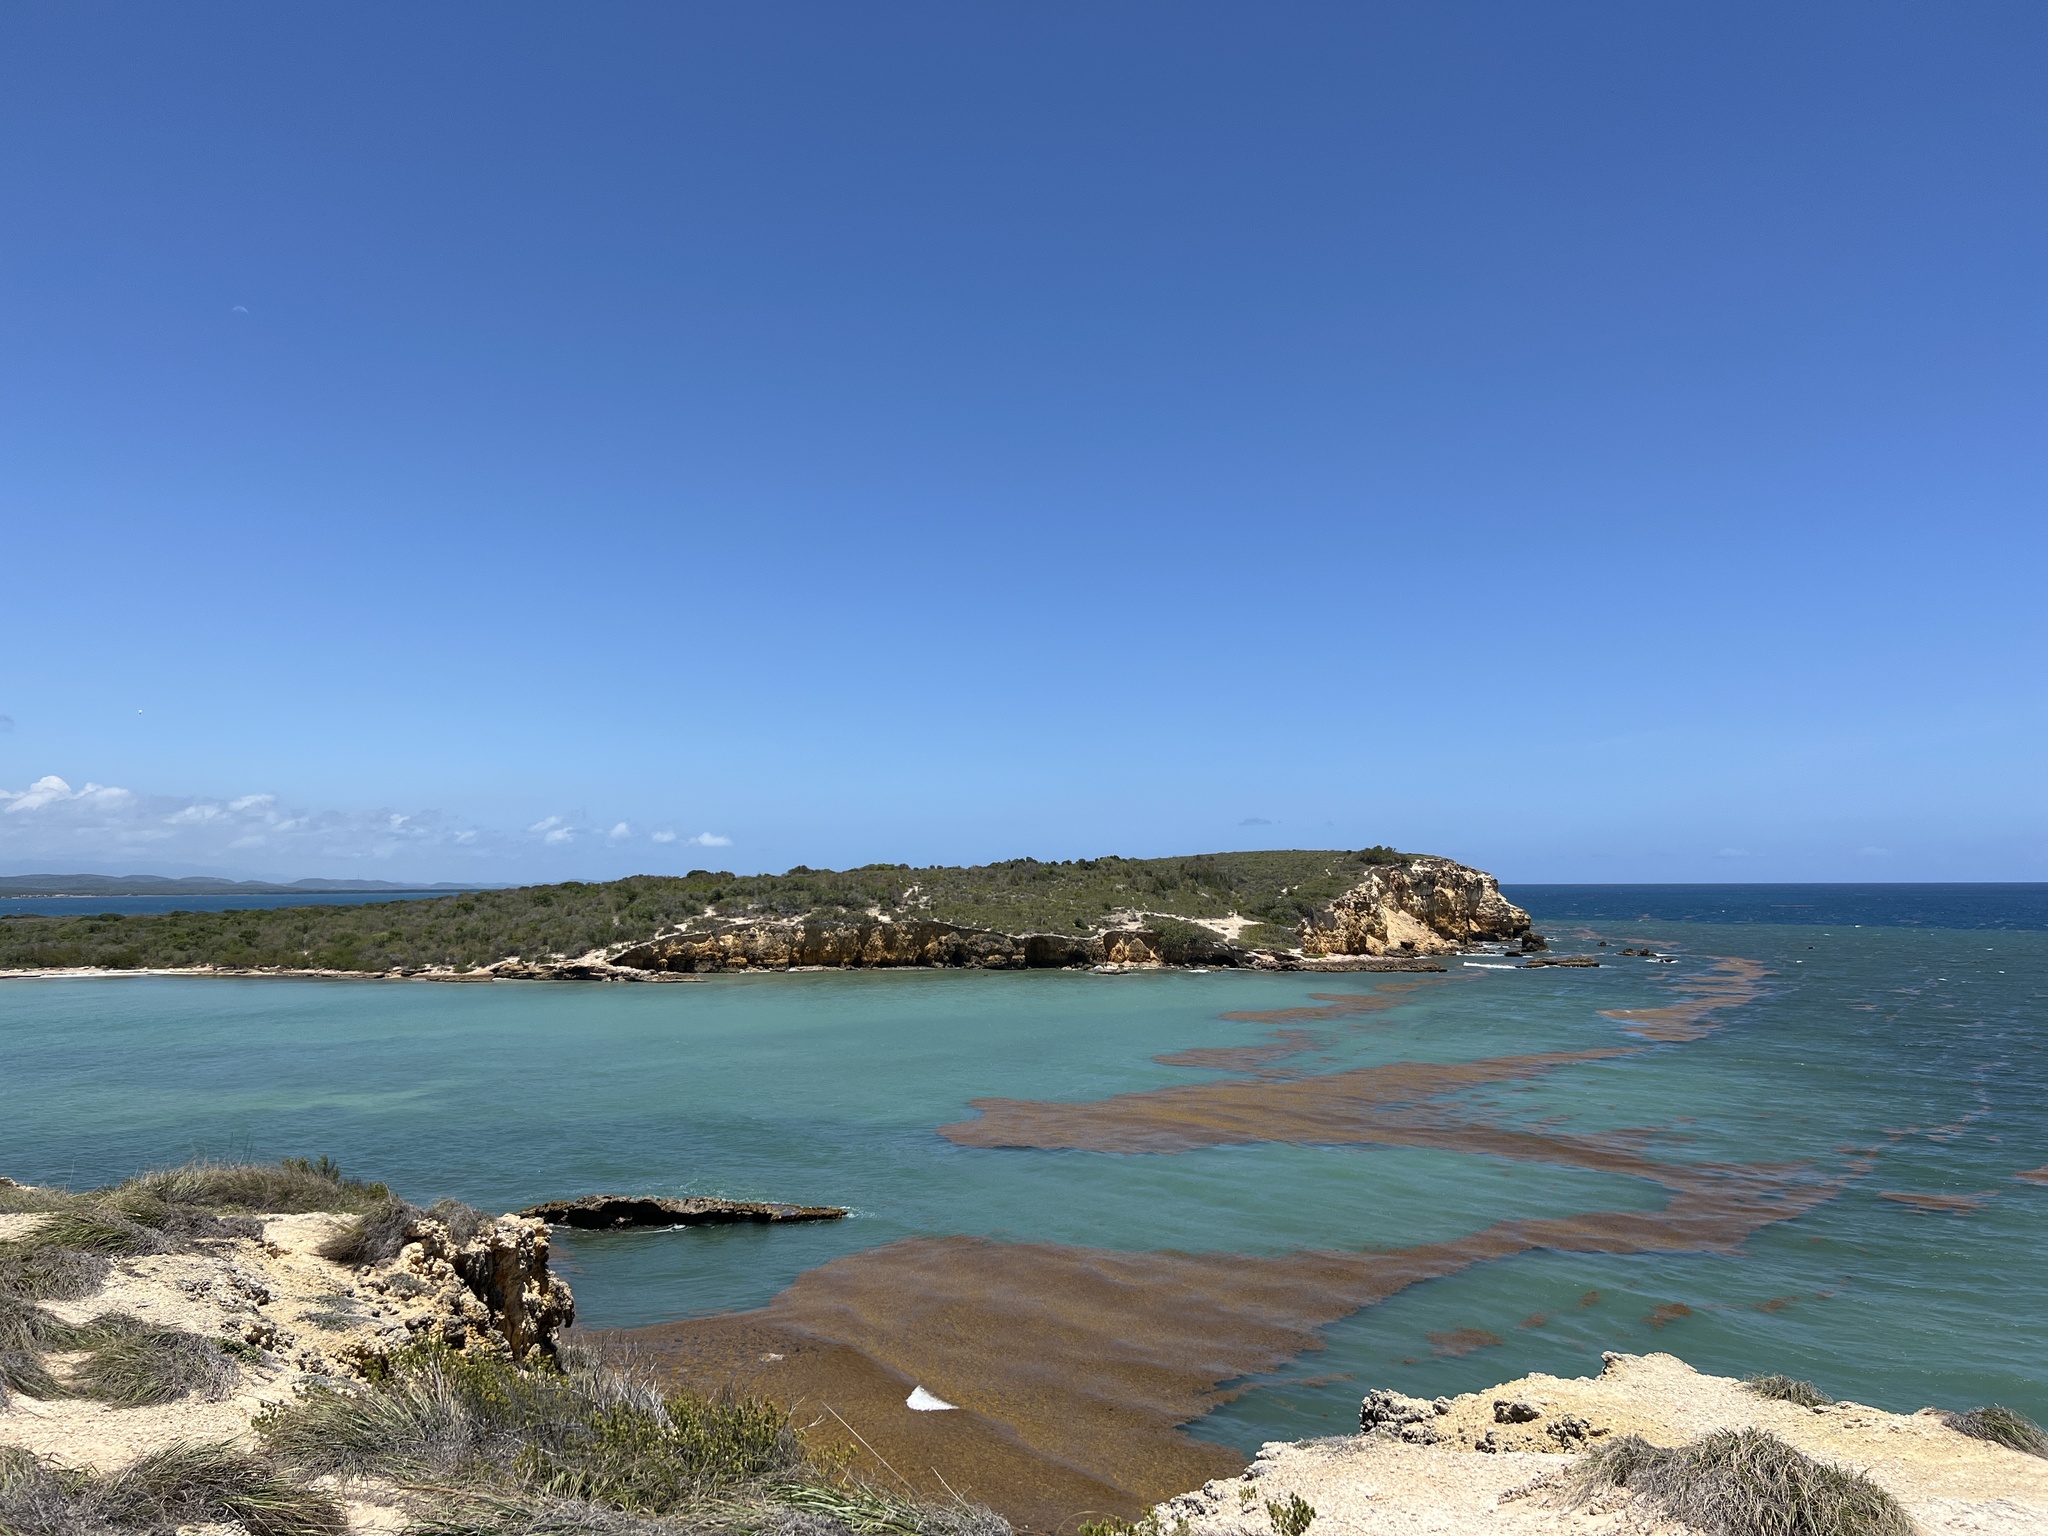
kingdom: Chromista
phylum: Ochrophyta
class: Phaeophyceae
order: Fucales
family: Sargassaceae
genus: Sargassum
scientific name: Sargassum fluitans
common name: Sargassum seaweed
